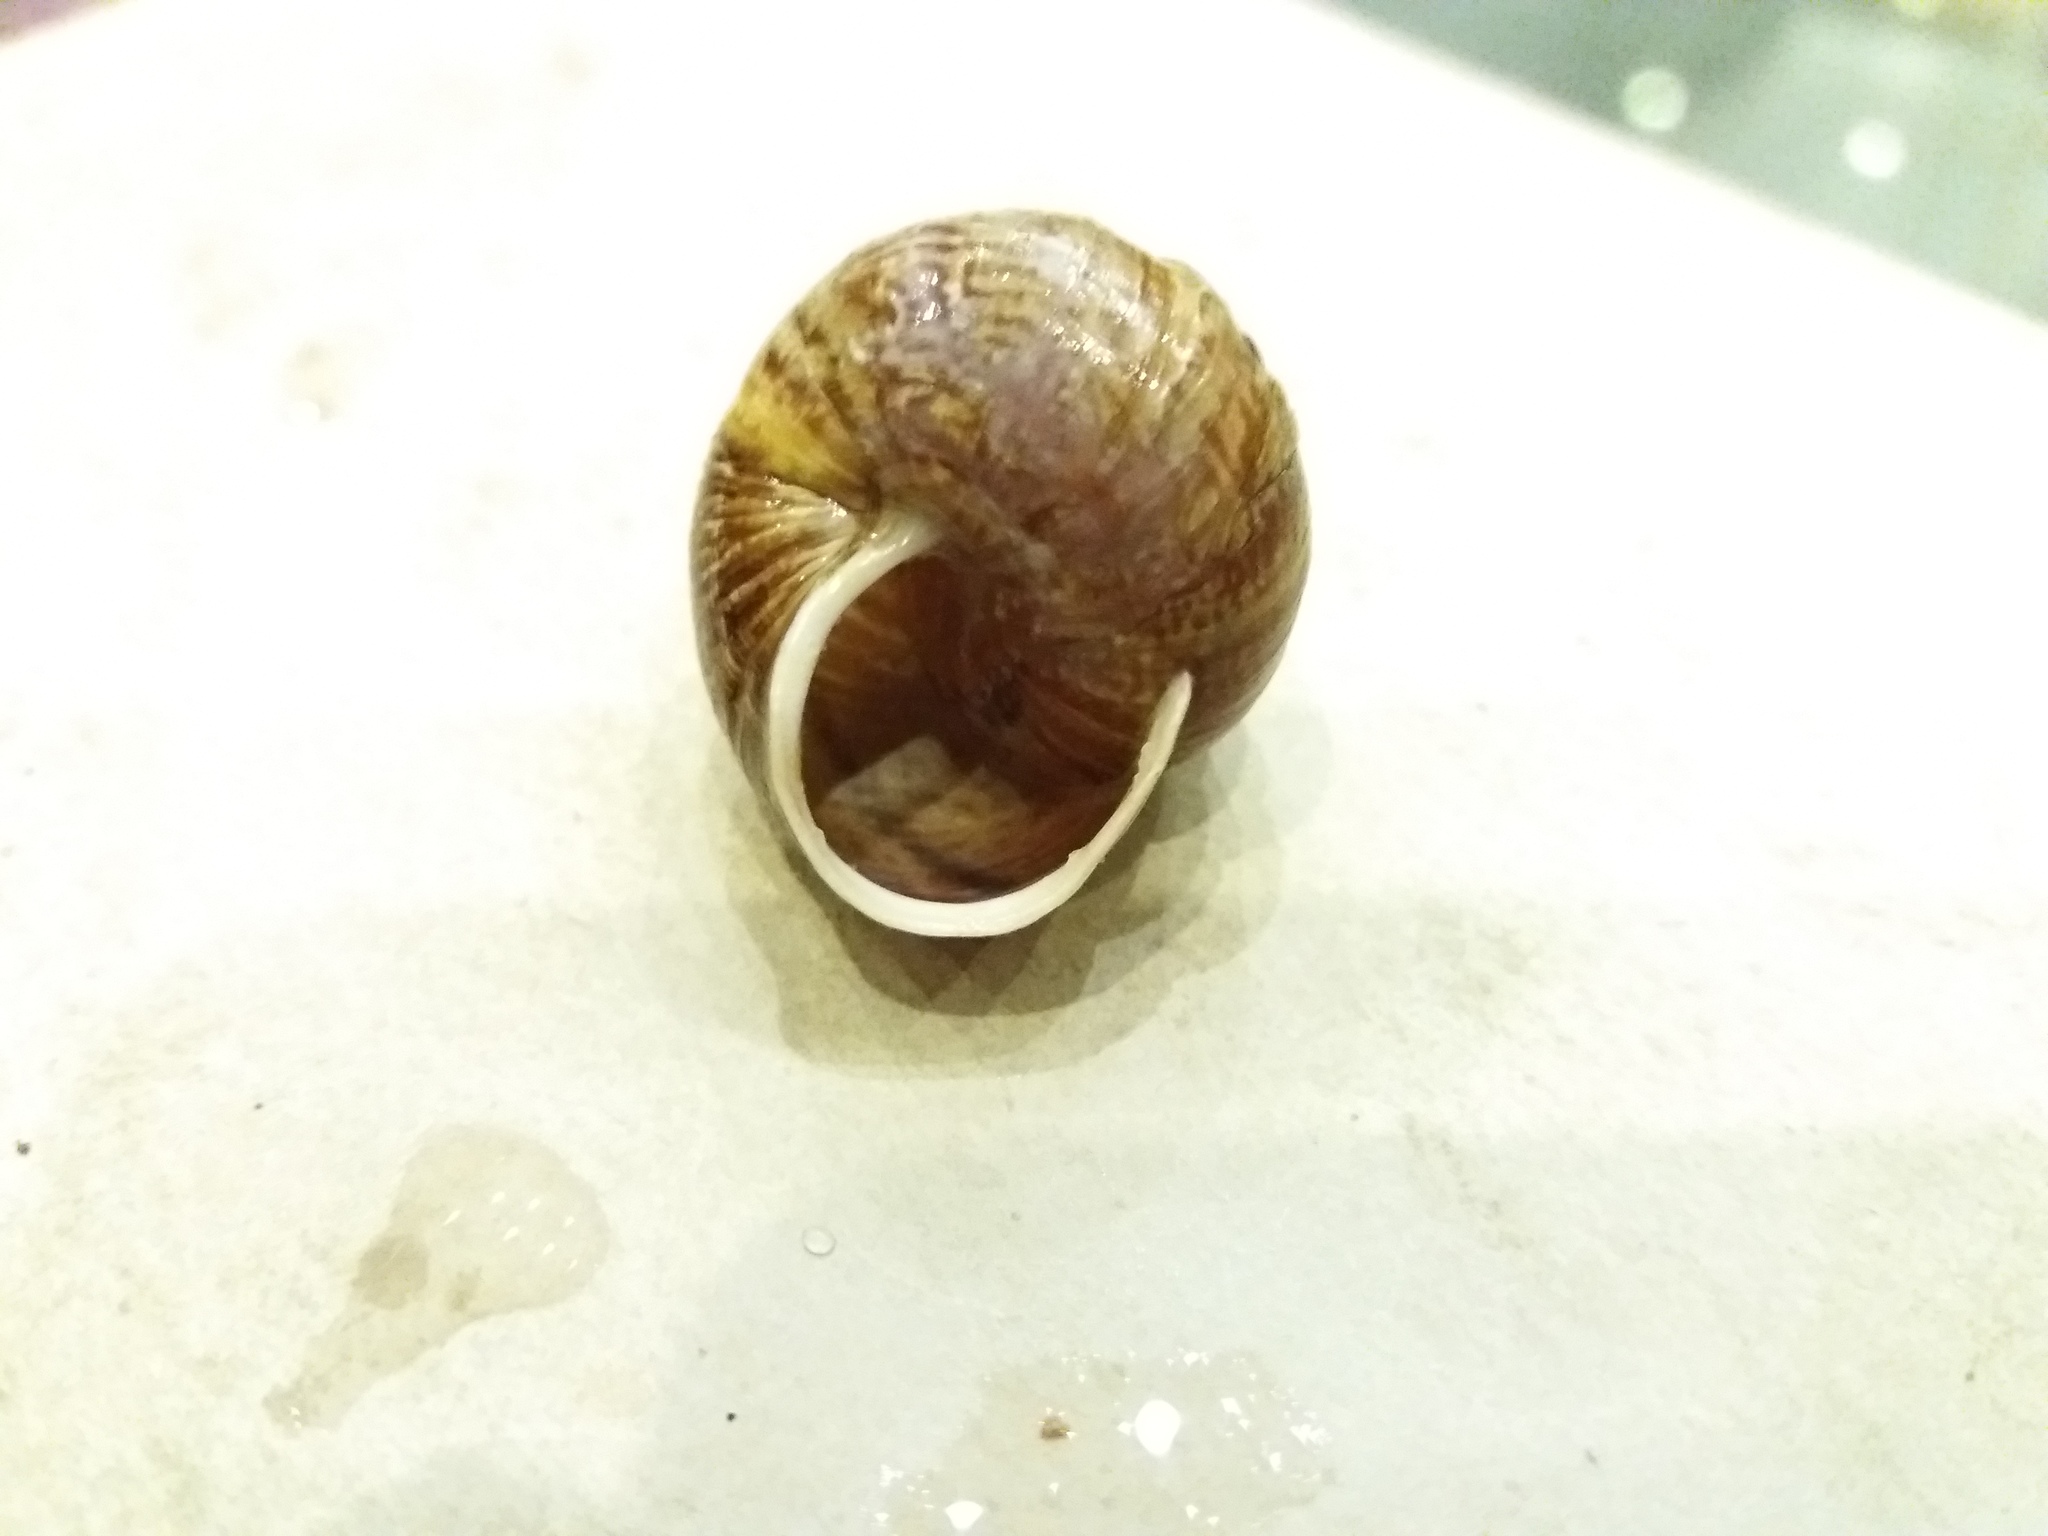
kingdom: Animalia
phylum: Mollusca
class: Gastropoda
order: Stylommatophora
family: Helicidae
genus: Arianta
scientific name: Arianta arbustorum
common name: Copse snail
